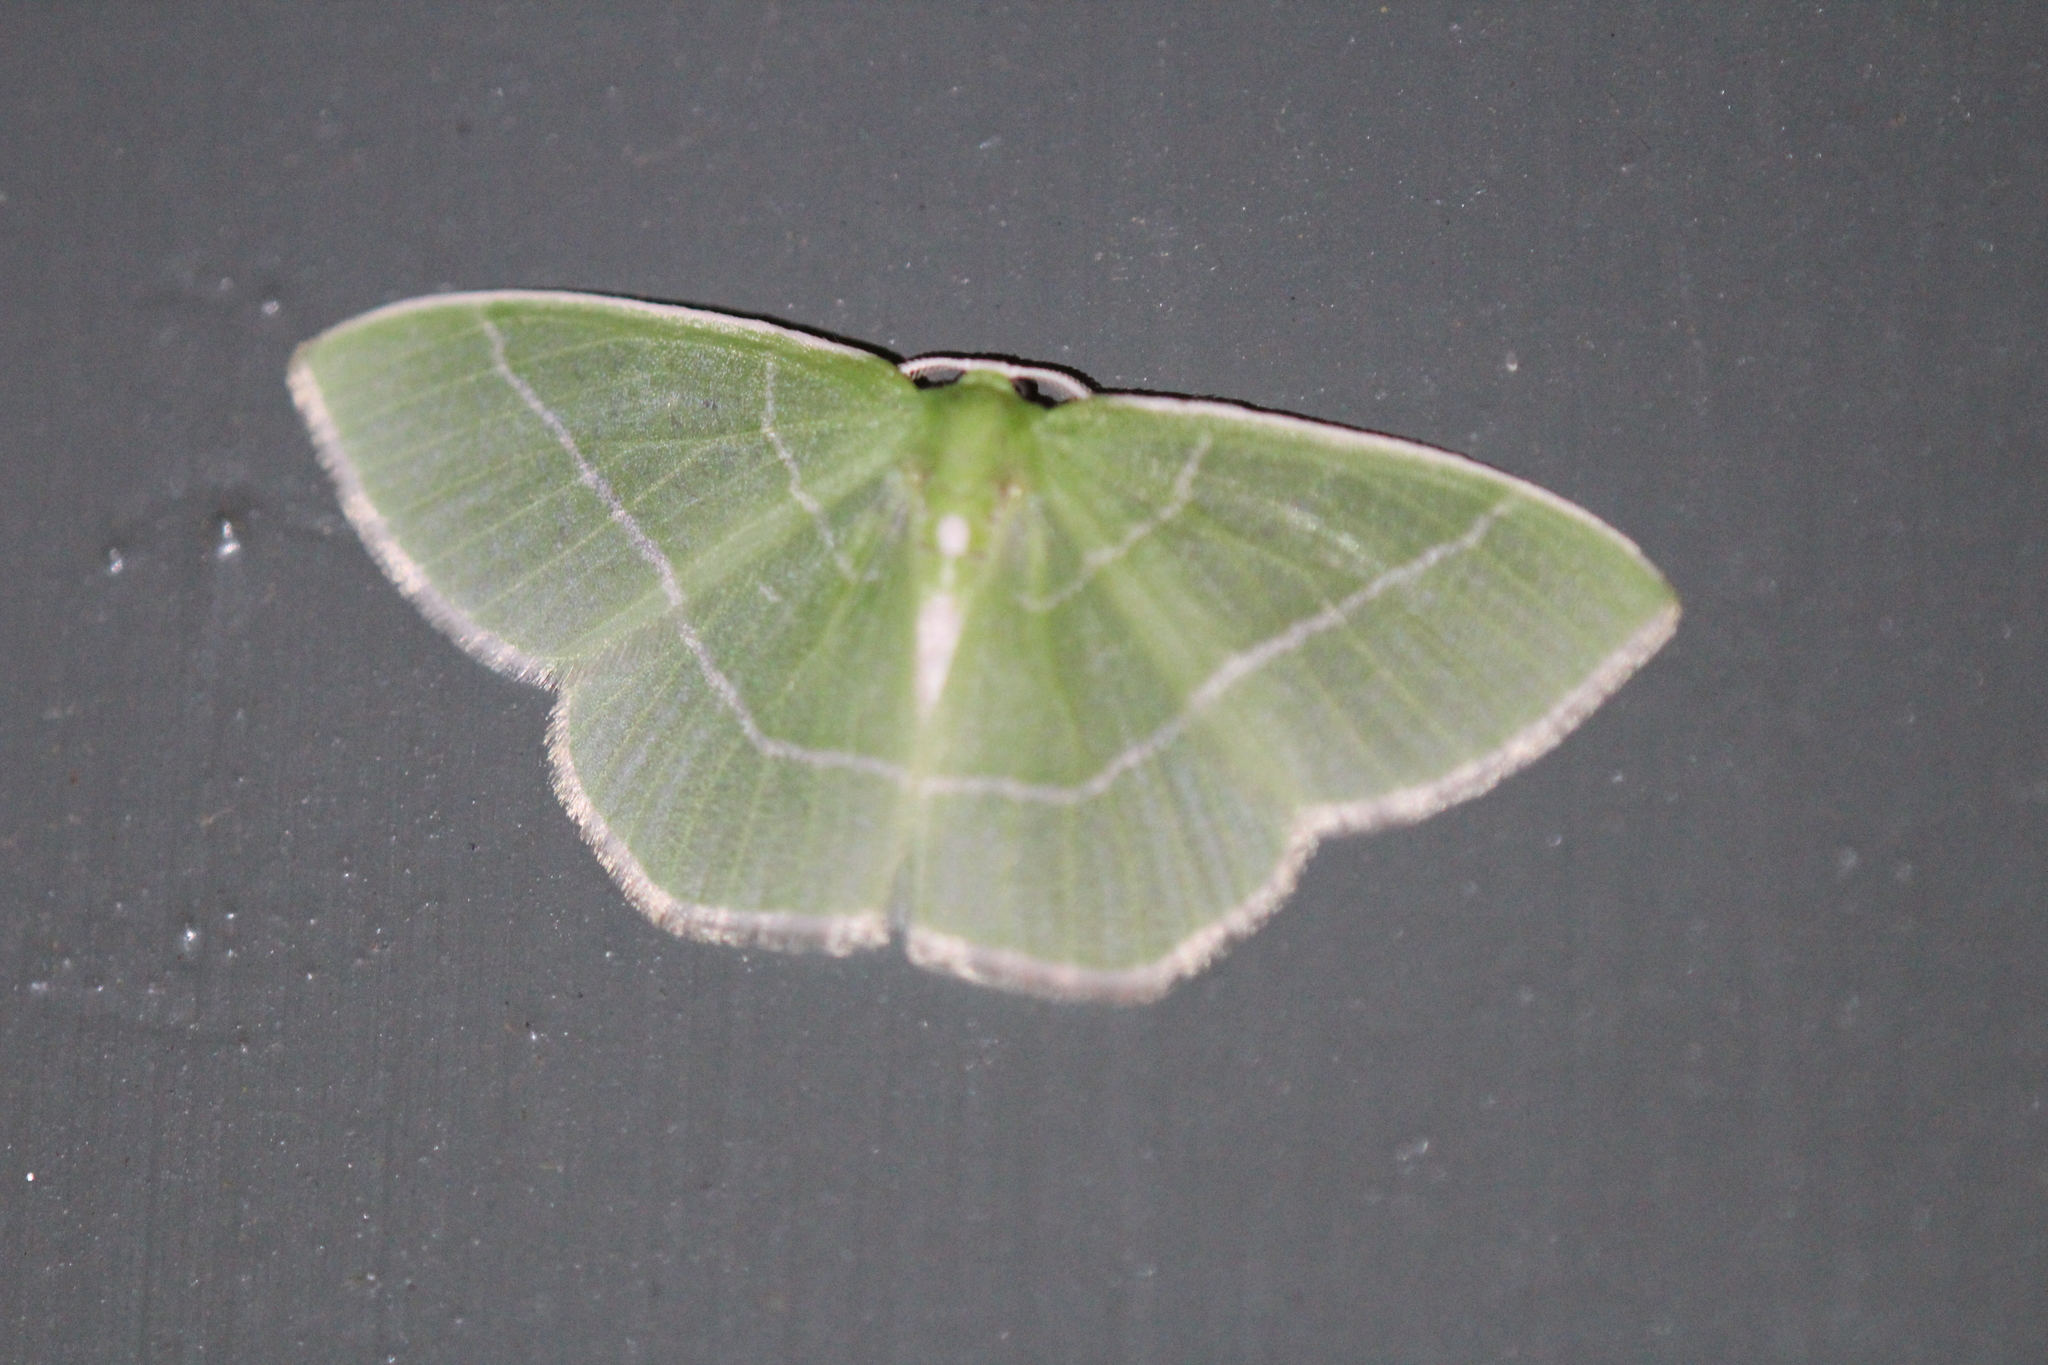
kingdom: Animalia
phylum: Arthropoda
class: Insecta
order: Lepidoptera
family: Geometridae
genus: Nemoria
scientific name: Nemoria mimosaria
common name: White-fringed emerald
